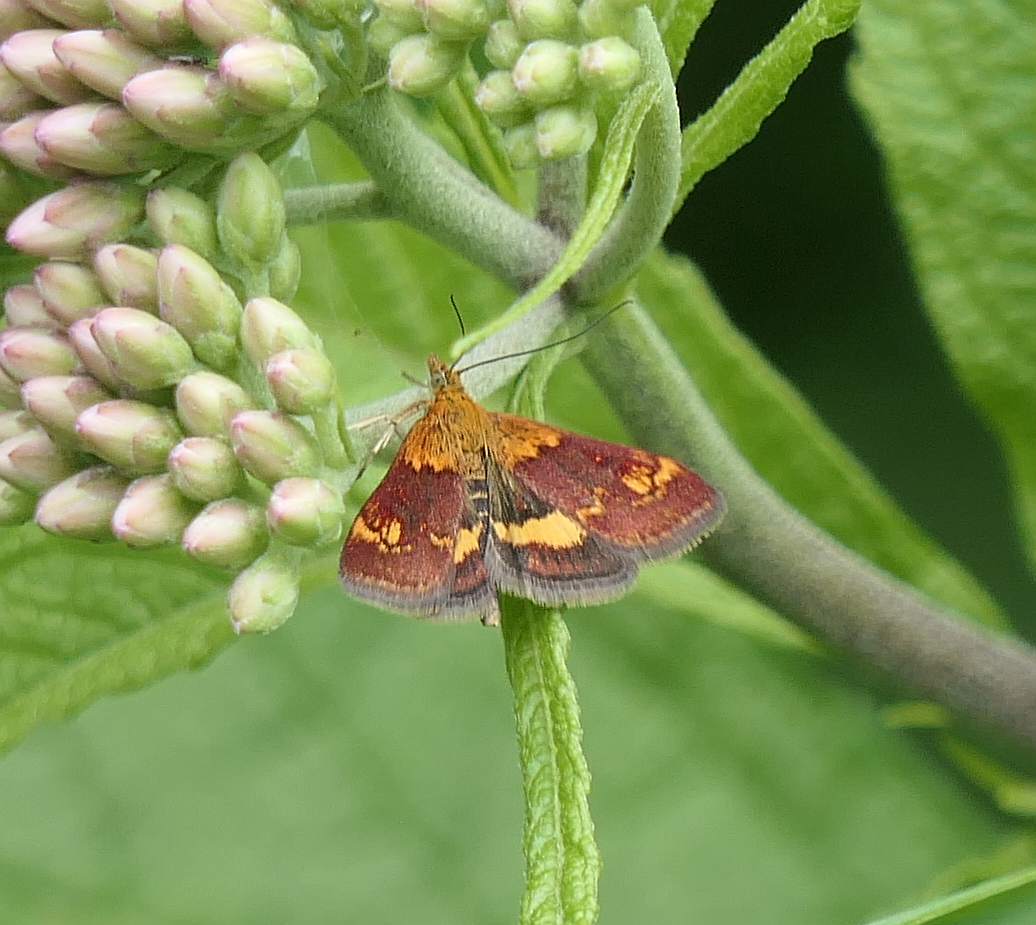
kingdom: Animalia
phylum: Arthropoda
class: Insecta
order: Lepidoptera
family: Crambidae
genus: Pyrausta
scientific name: Pyrausta orphisalis
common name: Orange mint moth
